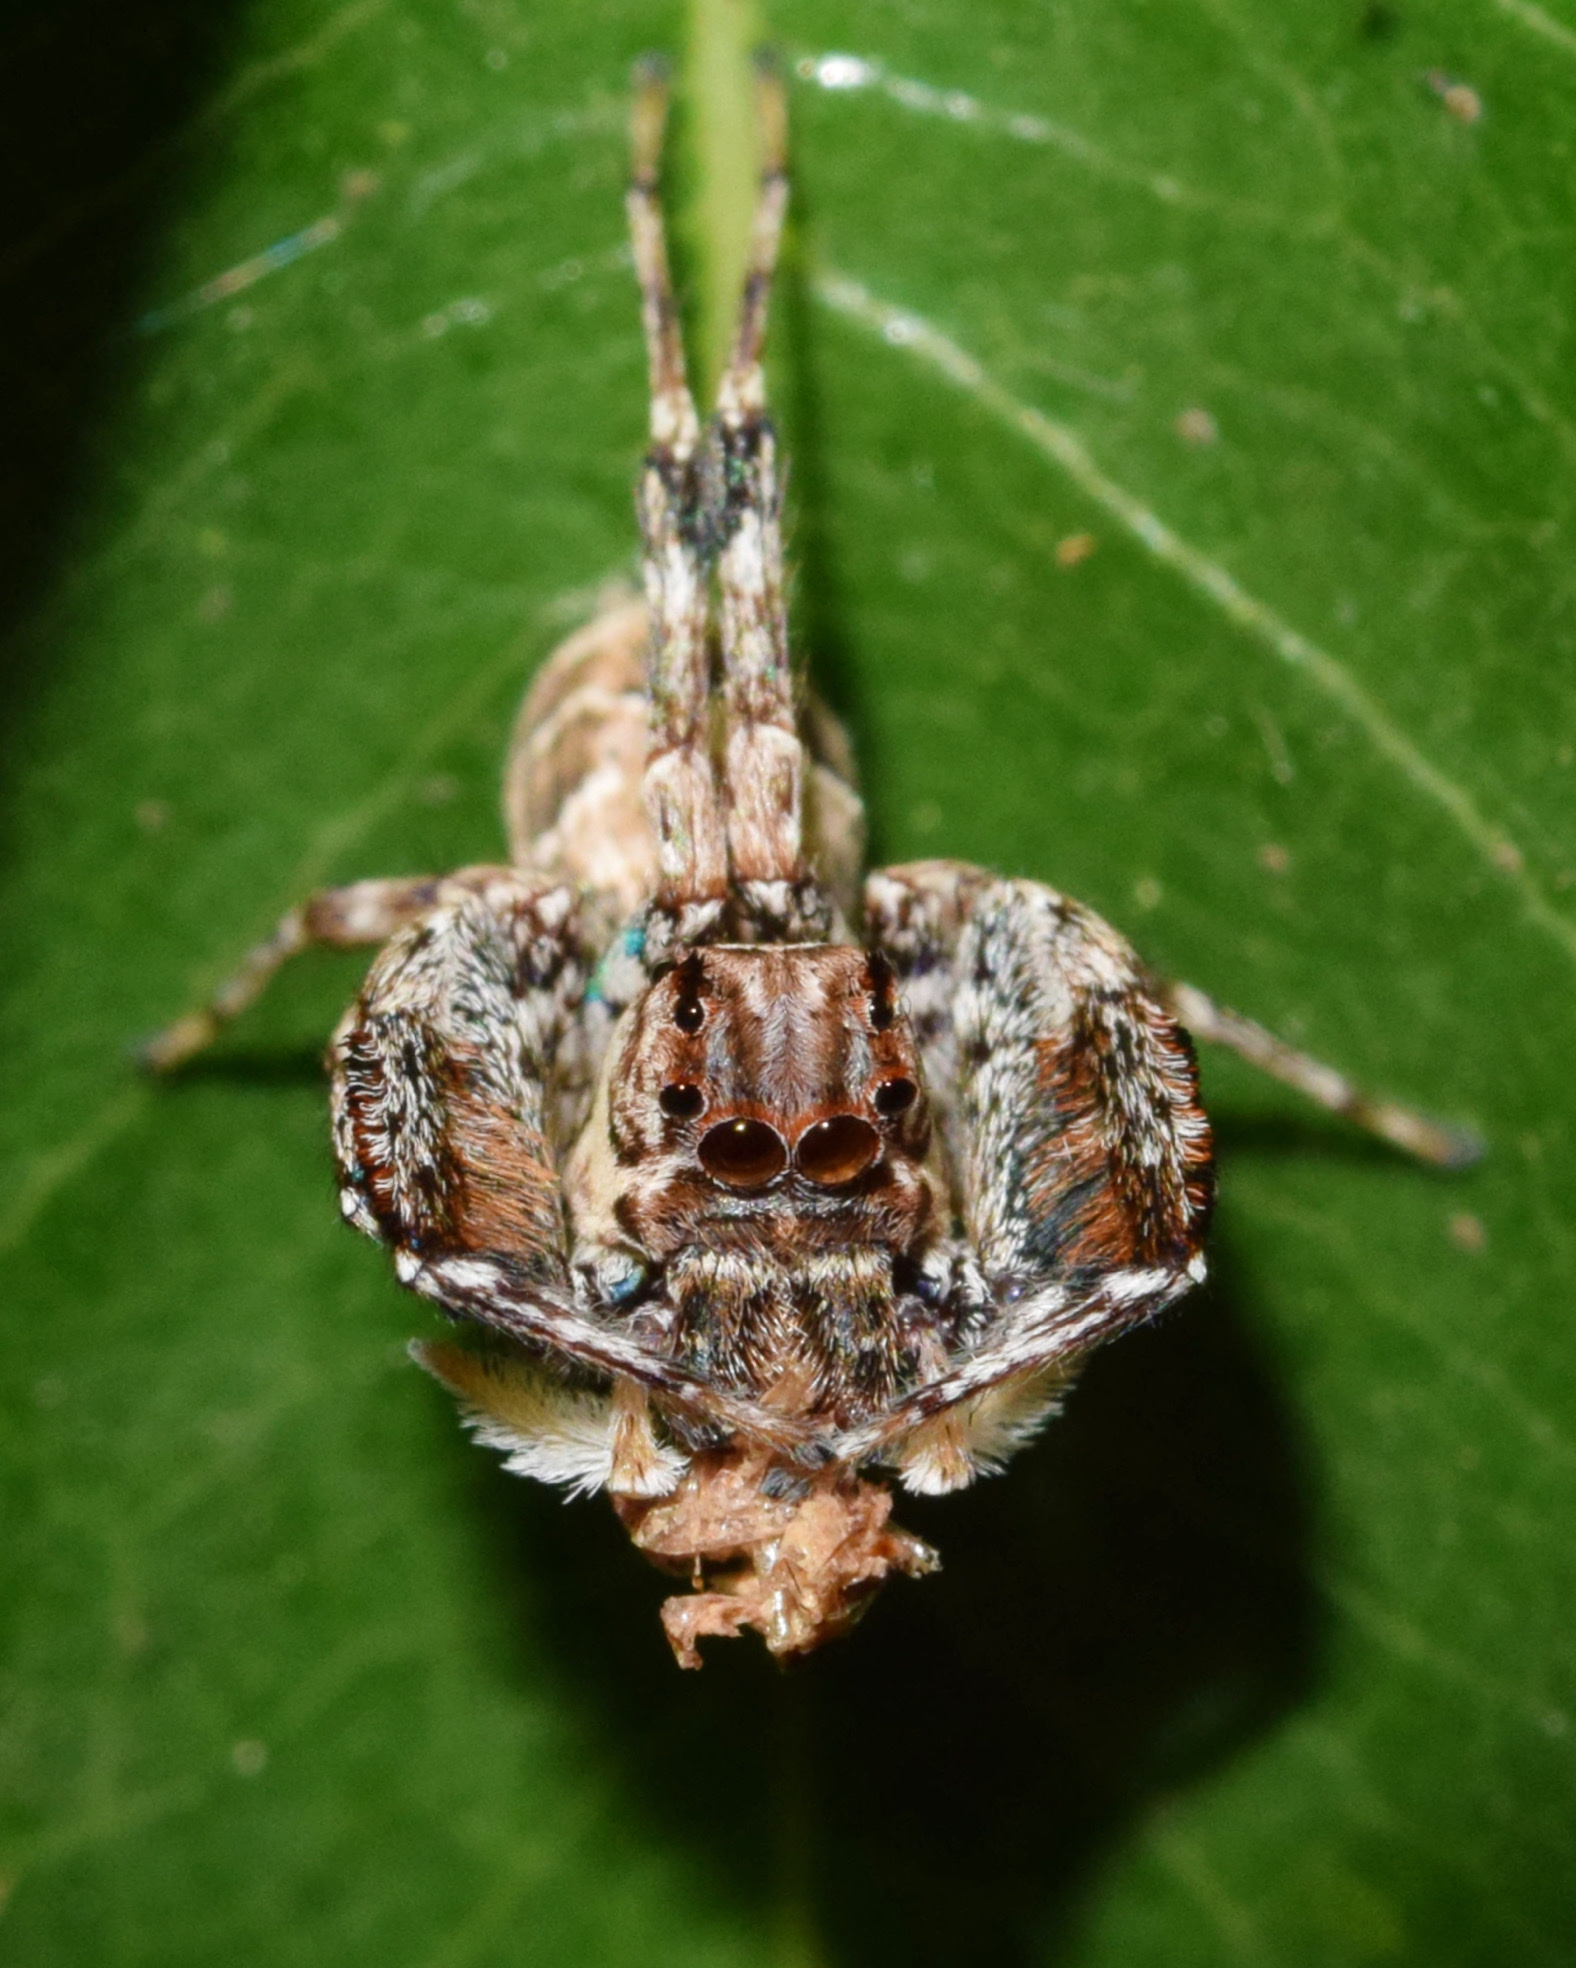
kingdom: Animalia
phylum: Arthropoda
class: Arachnida
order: Araneae
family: Salticidae
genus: Veissella
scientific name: Veissella durbani
